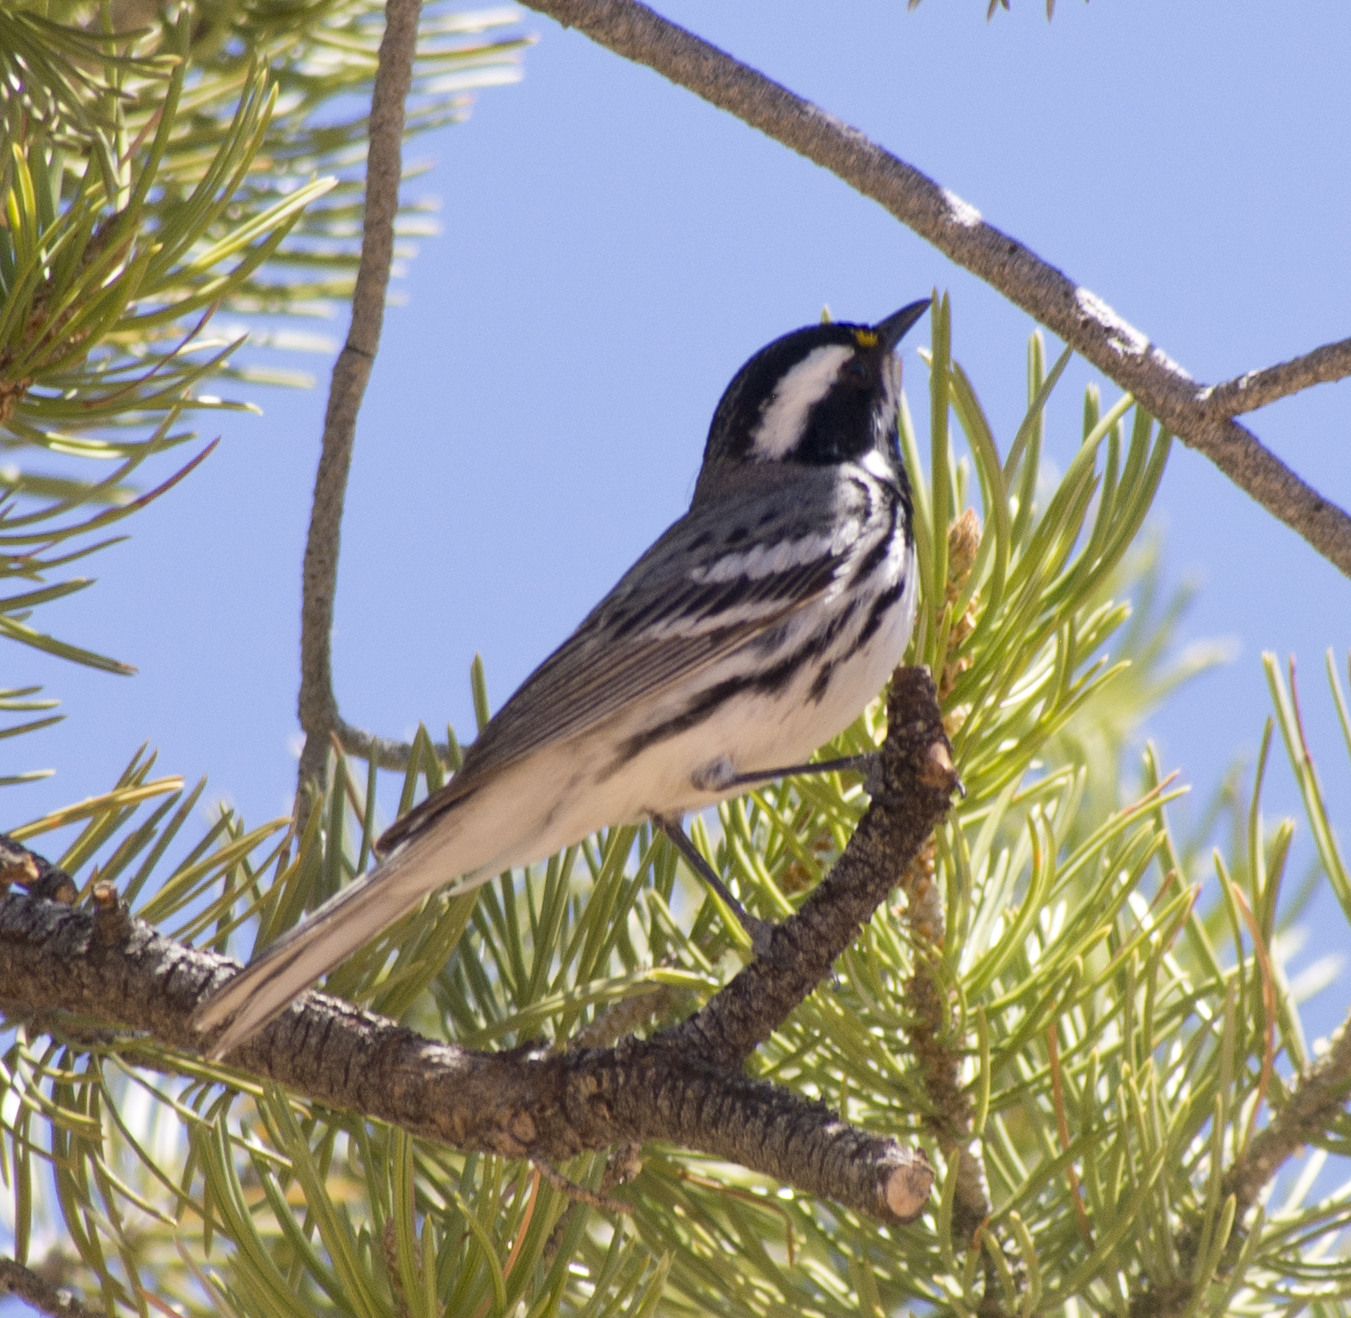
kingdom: Animalia
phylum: Chordata
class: Aves
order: Passeriformes
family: Parulidae
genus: Setophaga
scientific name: Setophaga nigrescens
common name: Black-throated gray warbler
